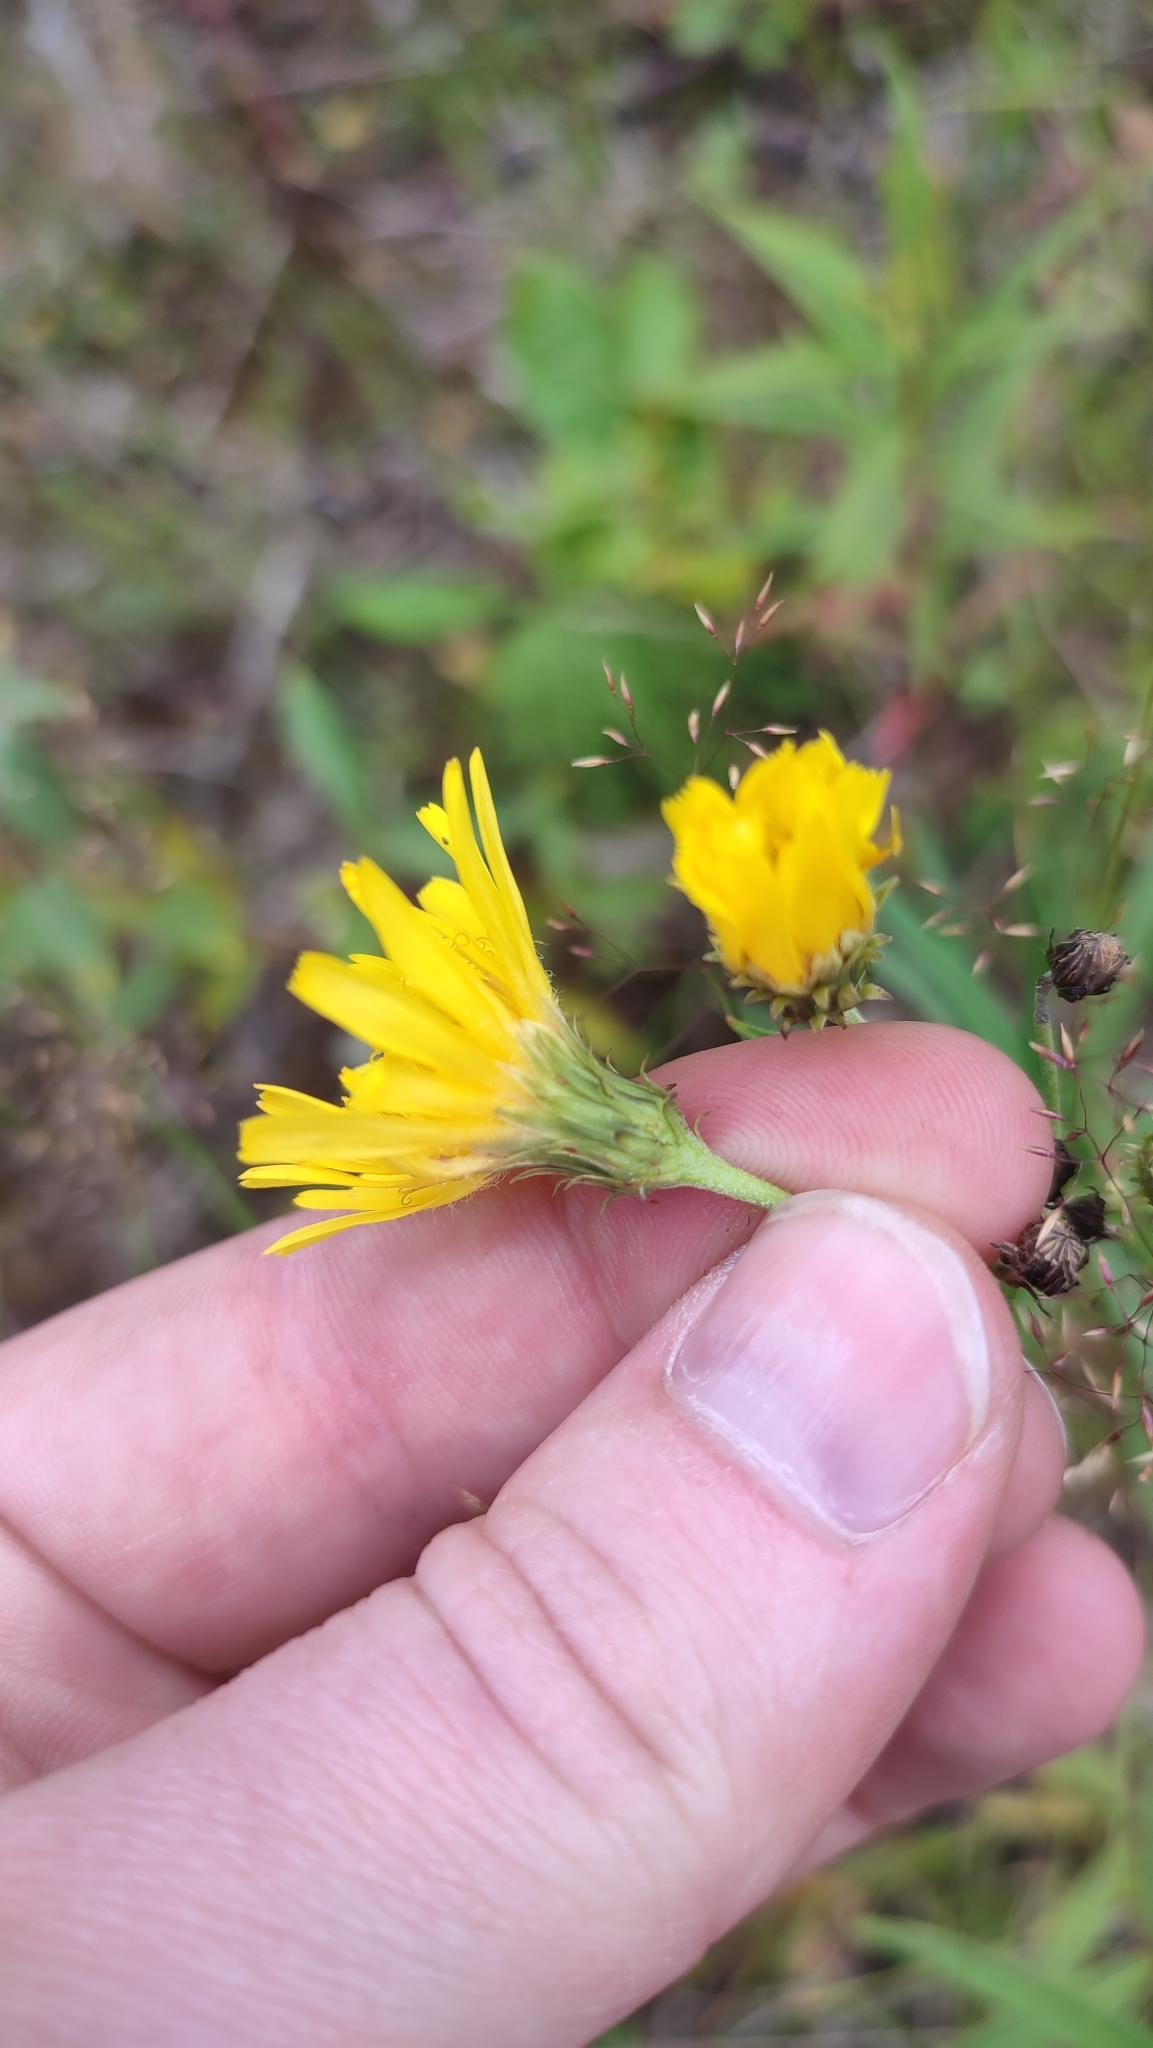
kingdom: Plantae
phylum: Tracheophyta
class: Magnoliopsida
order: Asterales
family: Asteraceae
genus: Hieracium
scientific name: Hieracium umbellatum
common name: Northern hawkweed
